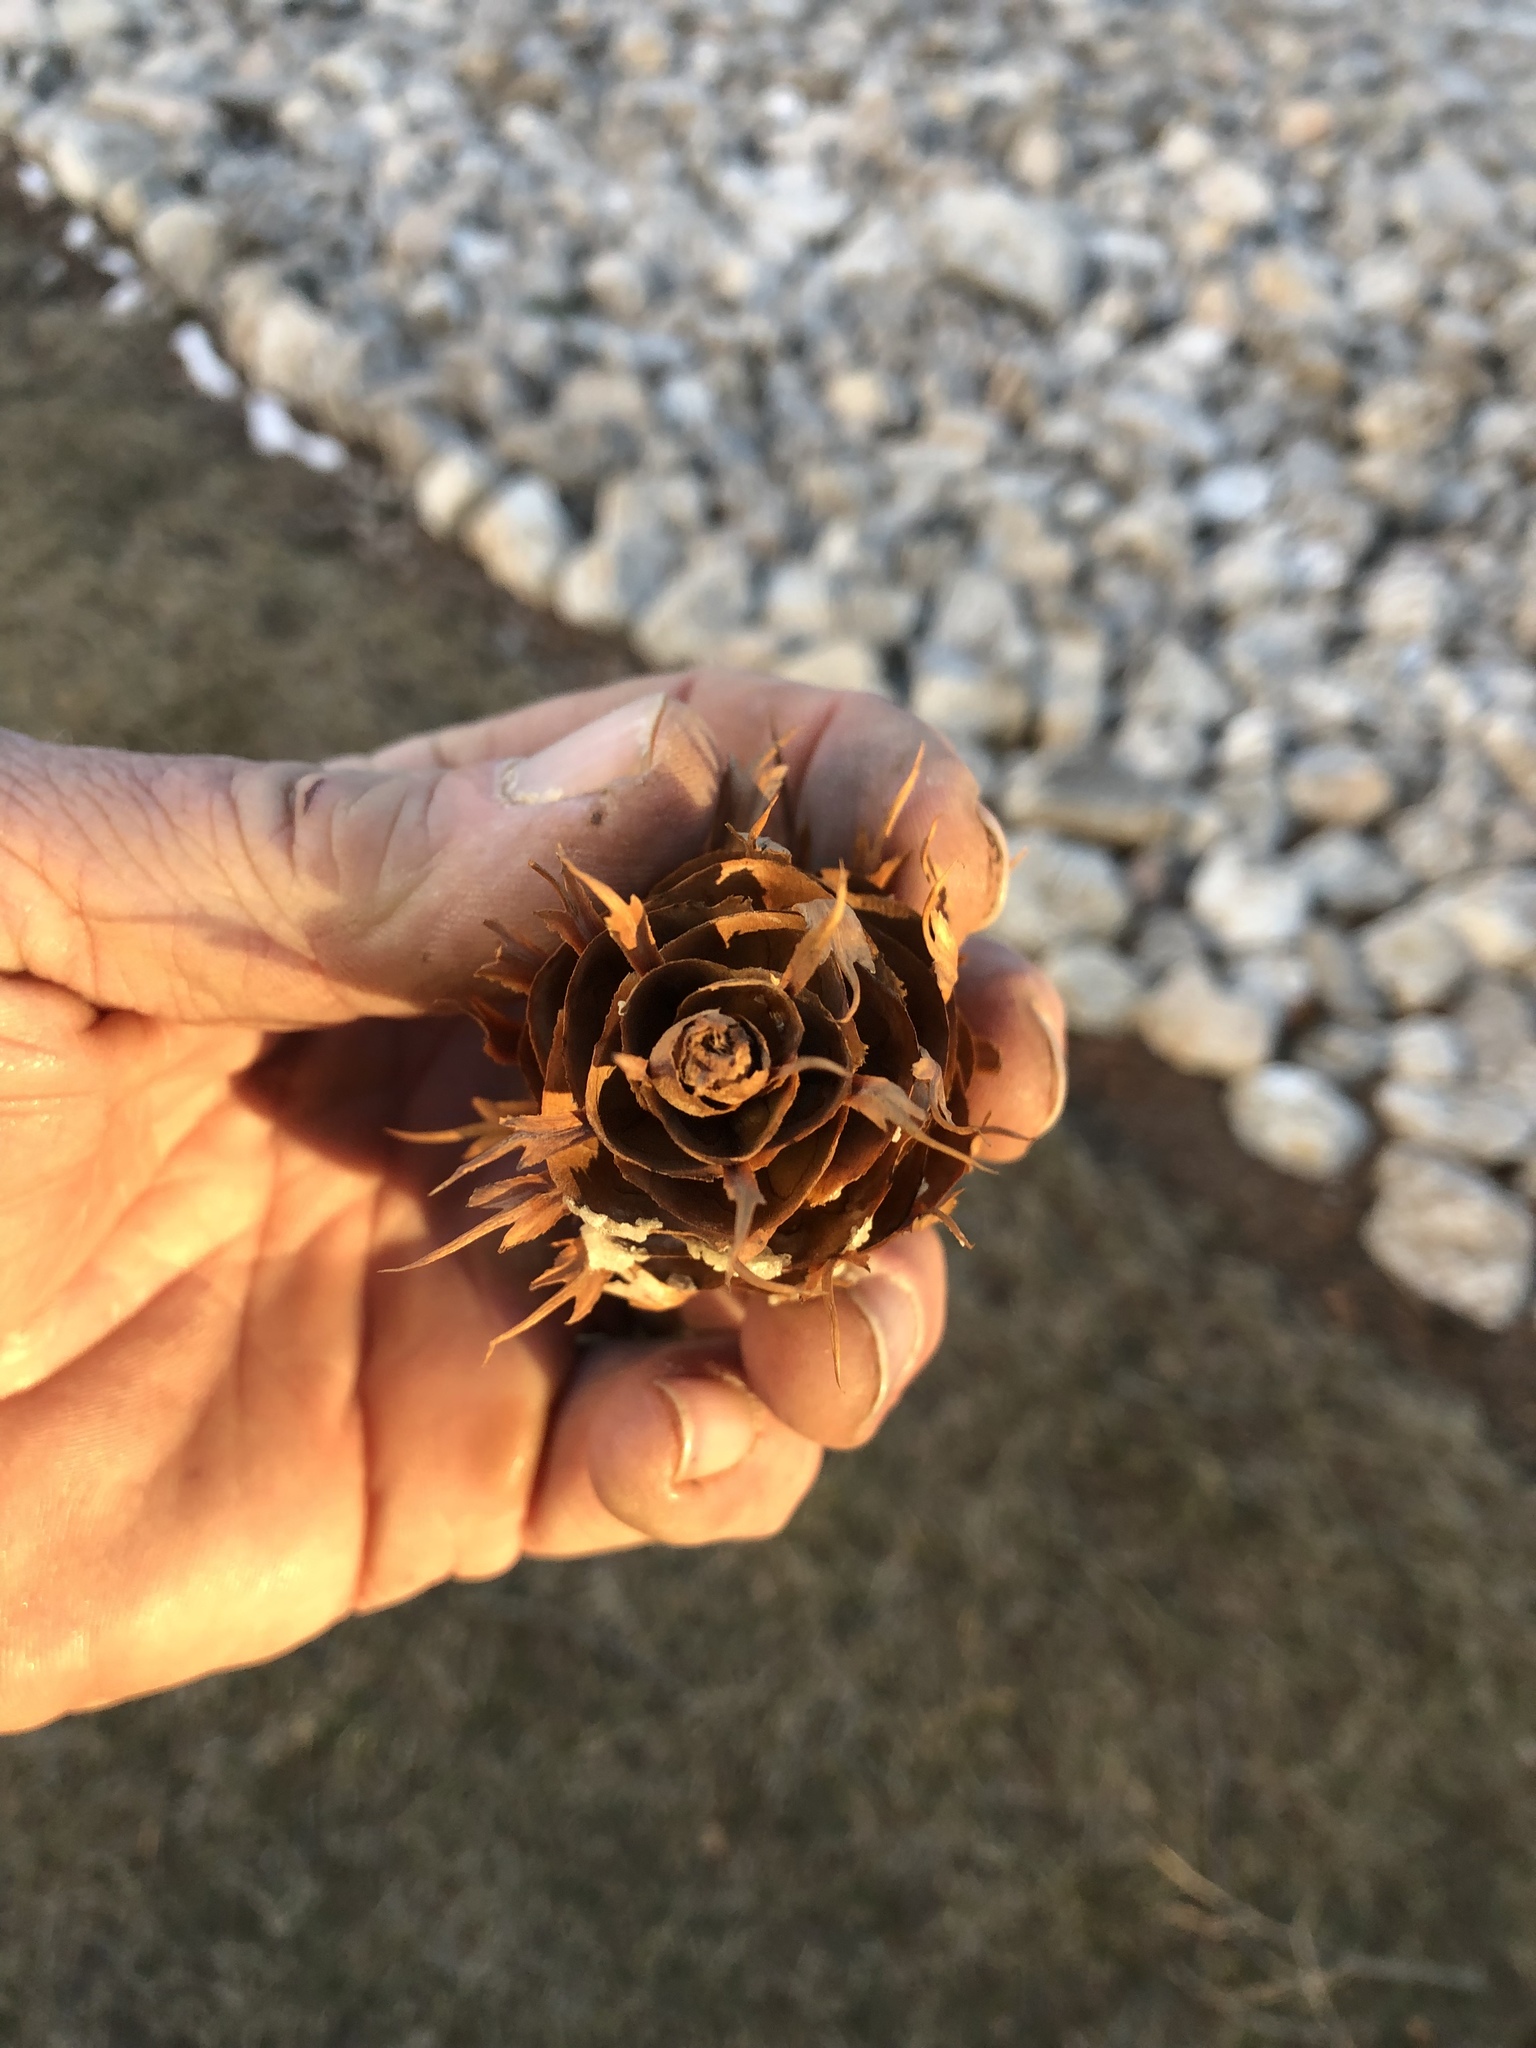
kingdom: Plantae
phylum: Tracheophyta
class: Pinopsida
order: Pinales
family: Pinaceae
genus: Pseudotsuga
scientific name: Pseudotsuga menziesii
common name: Douglas fir
